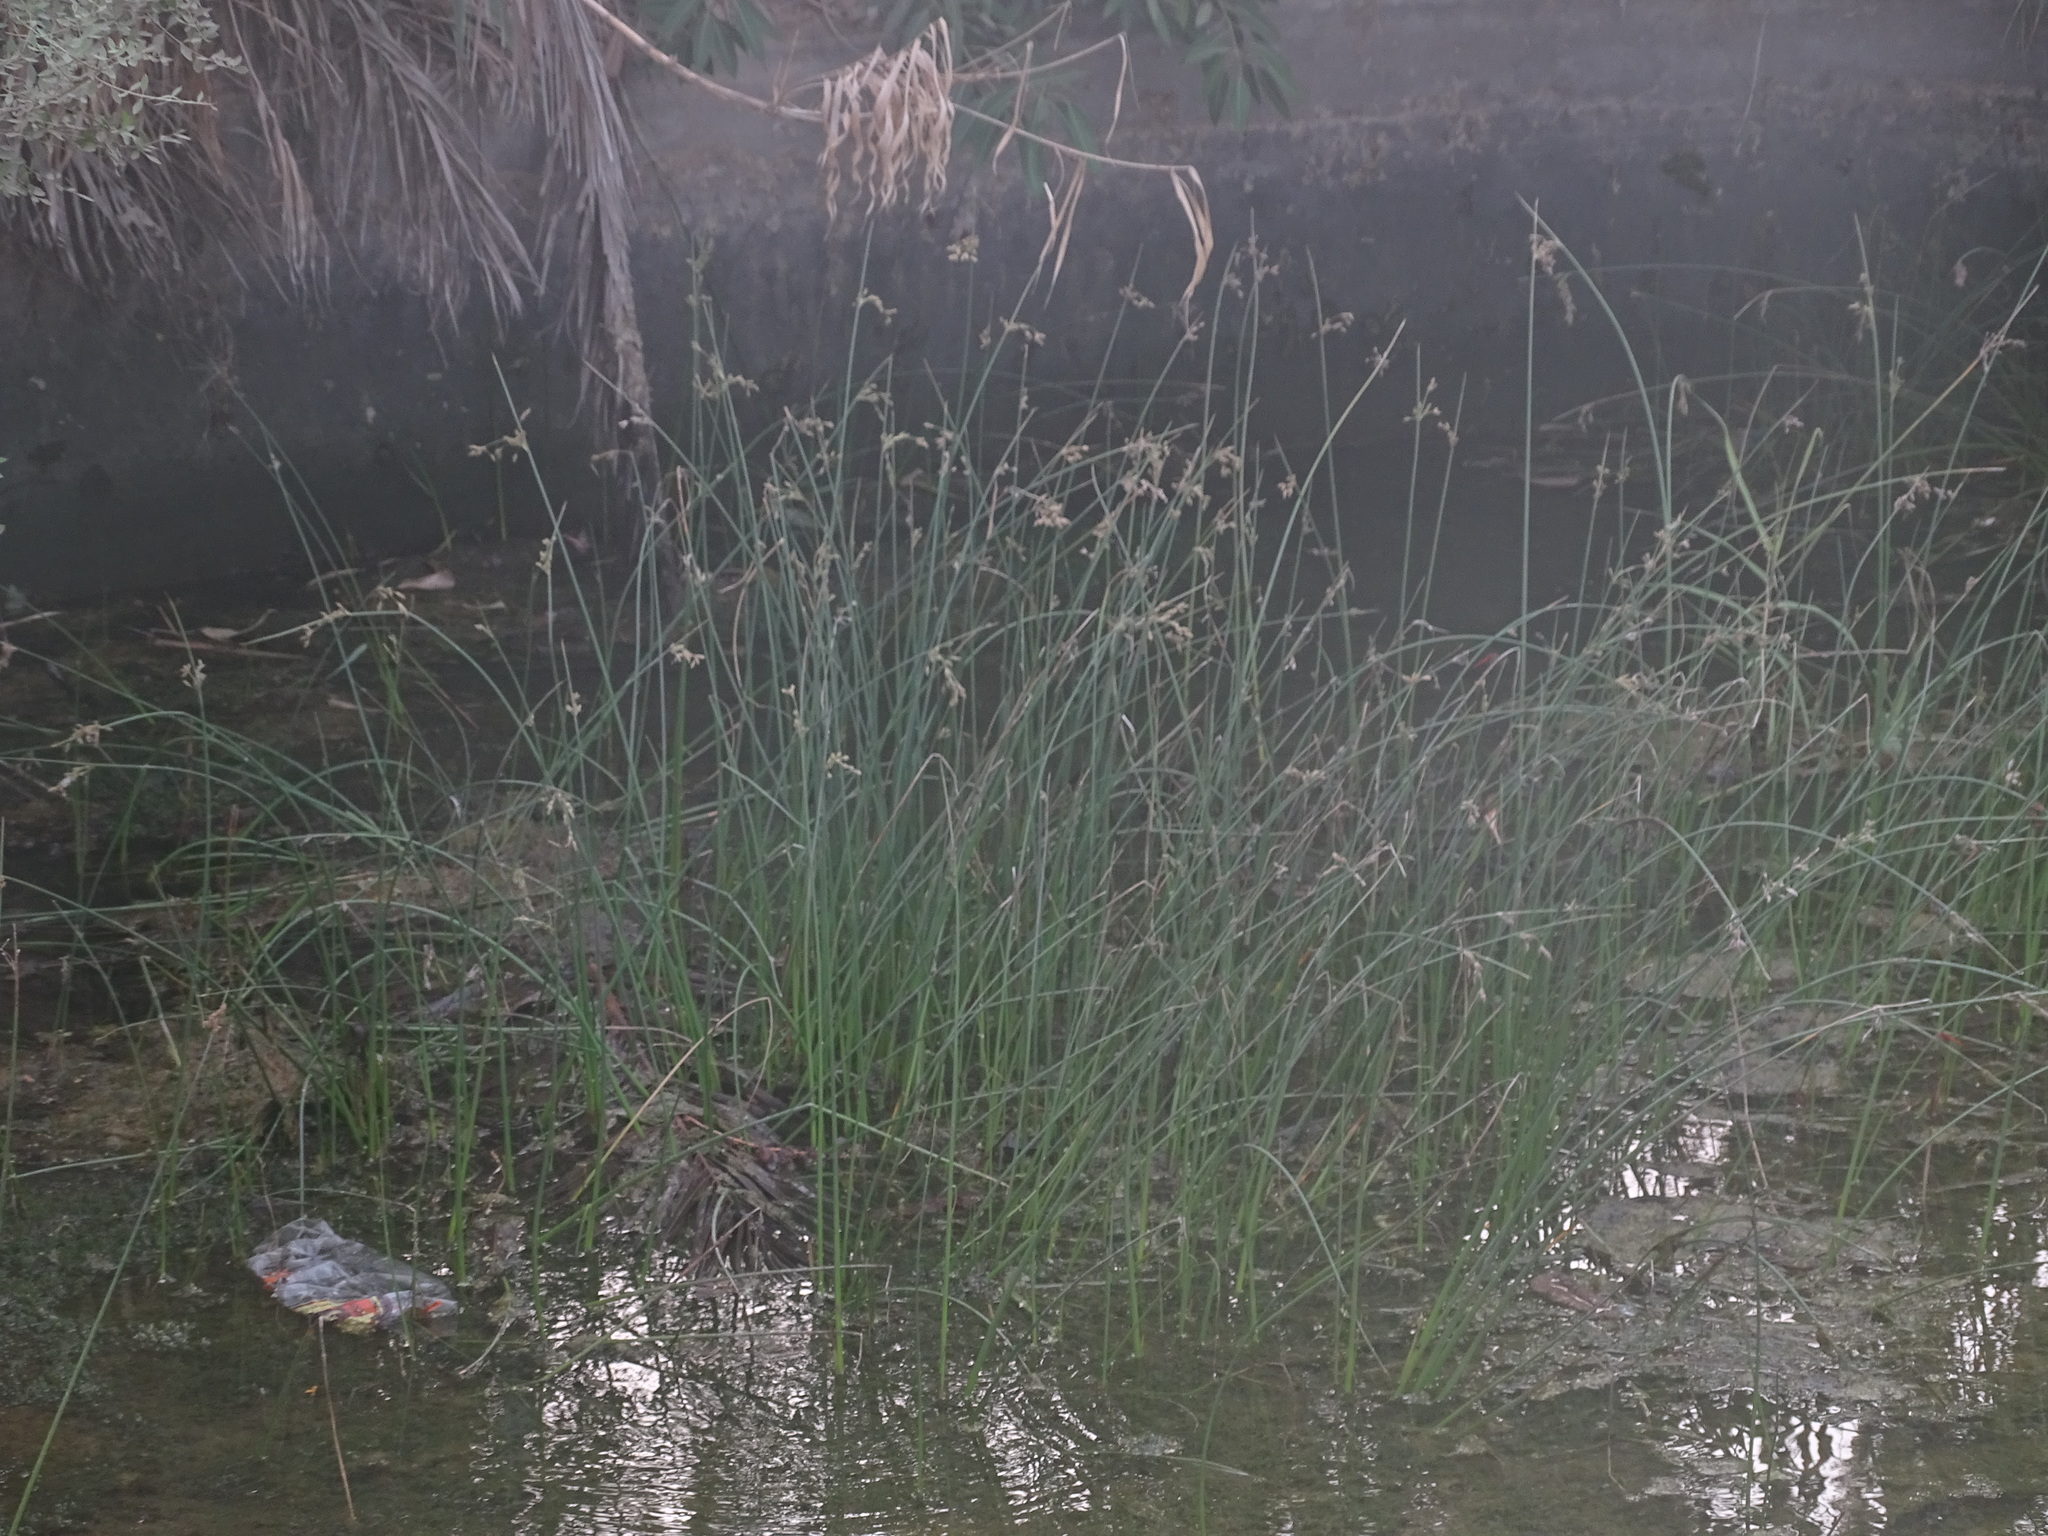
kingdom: Plantae
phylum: Tracheophyta
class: Liliopsida
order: Poales
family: Juncaceae
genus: Juncus
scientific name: Juncus socotranus
